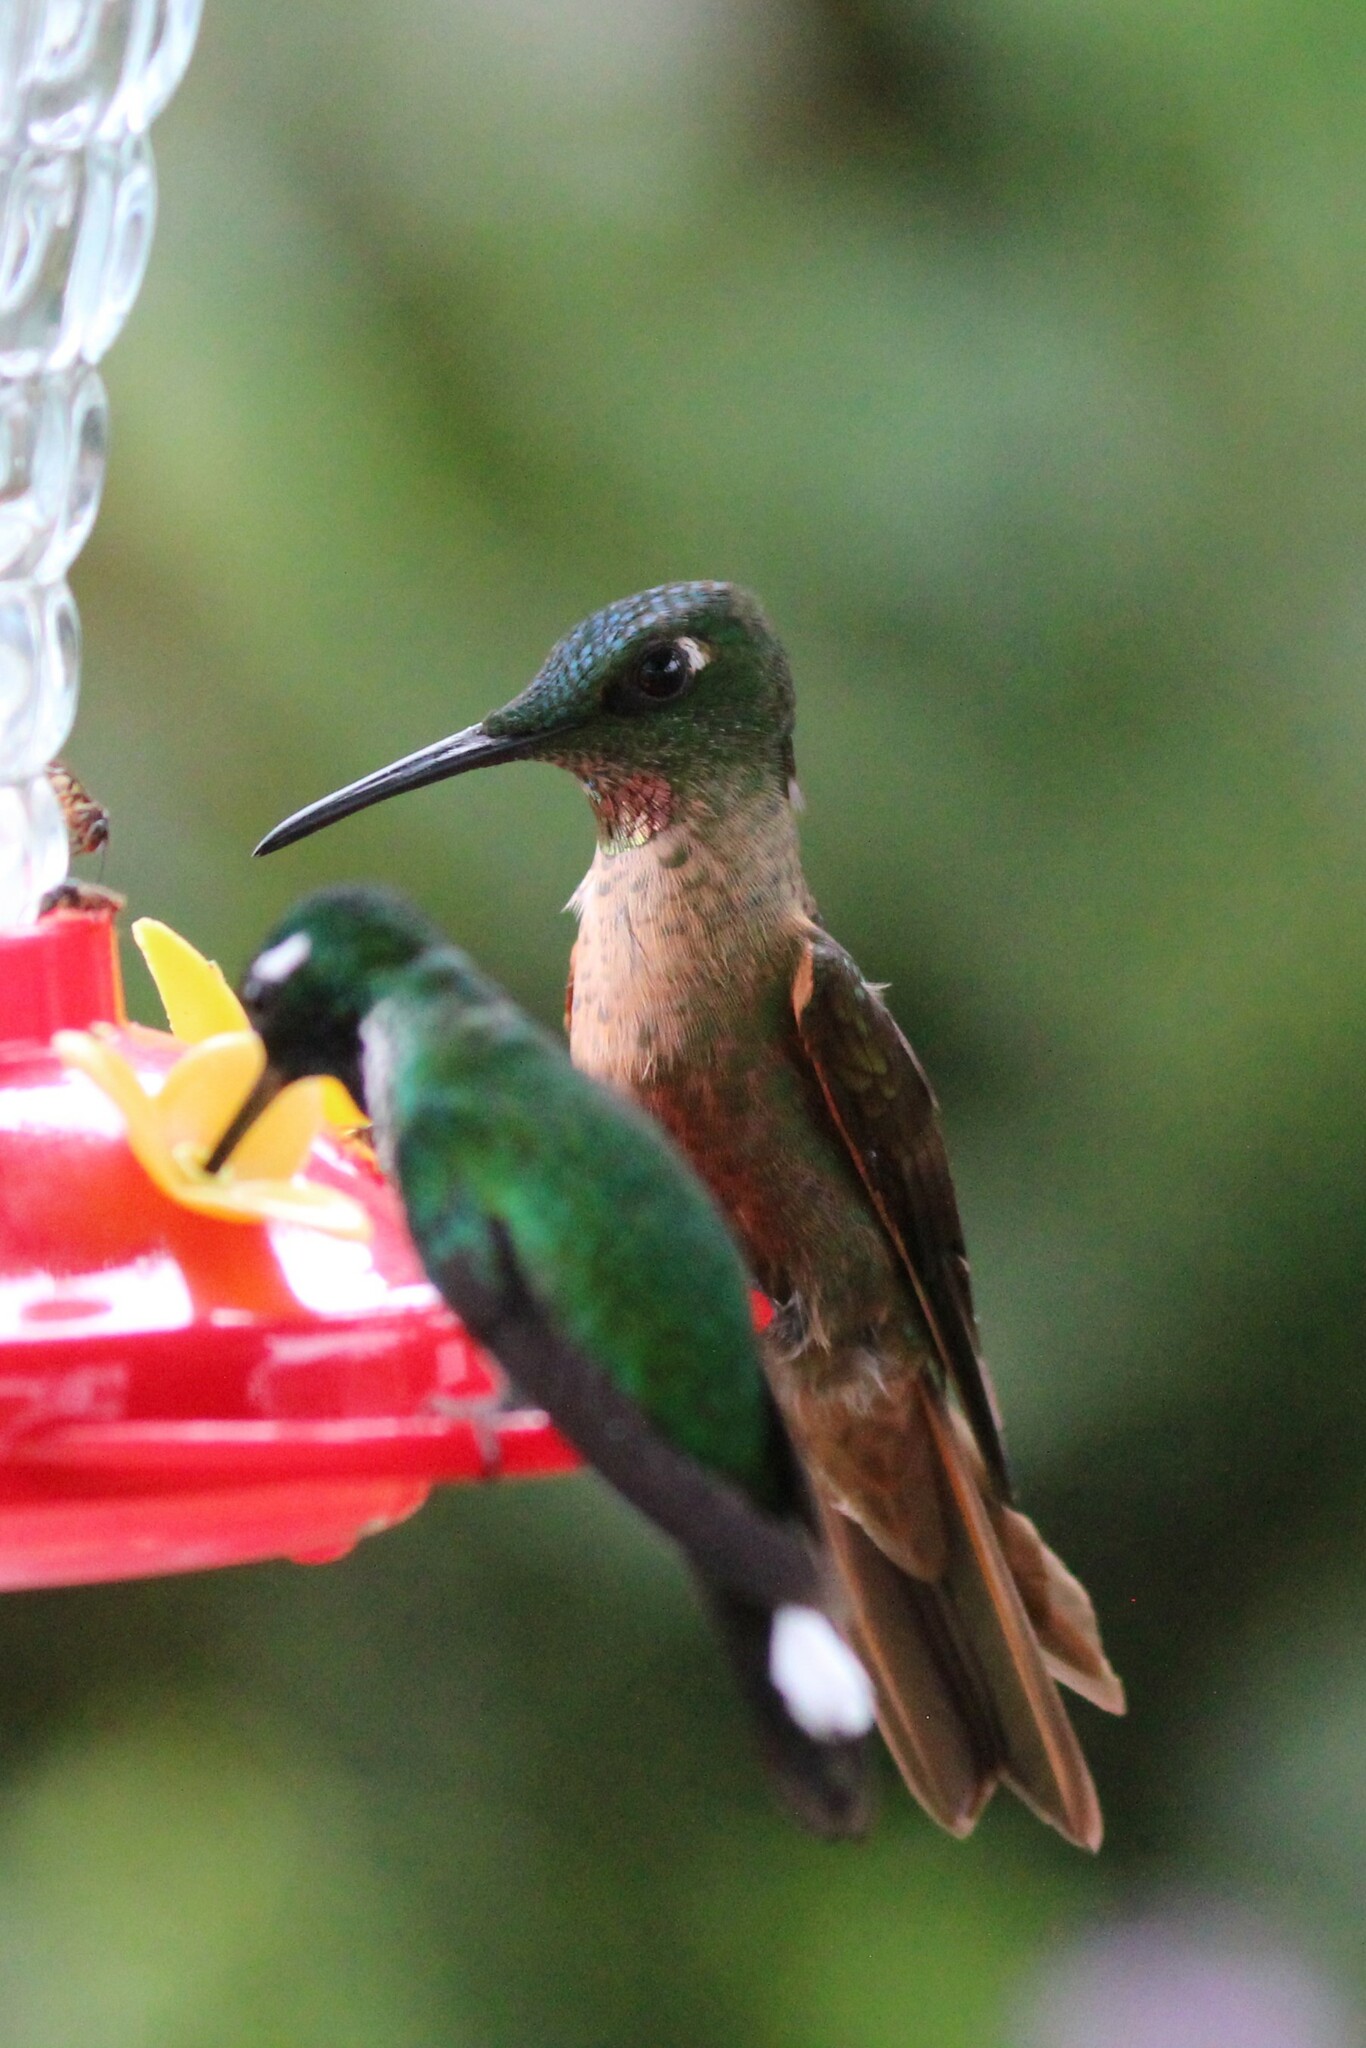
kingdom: Animalia
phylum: Chordata
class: Aves
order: Apodiformes
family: Trochilidae
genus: Heliodoxa
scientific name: Heliodoxa rubinoides
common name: Fawn-breasted brilliant
